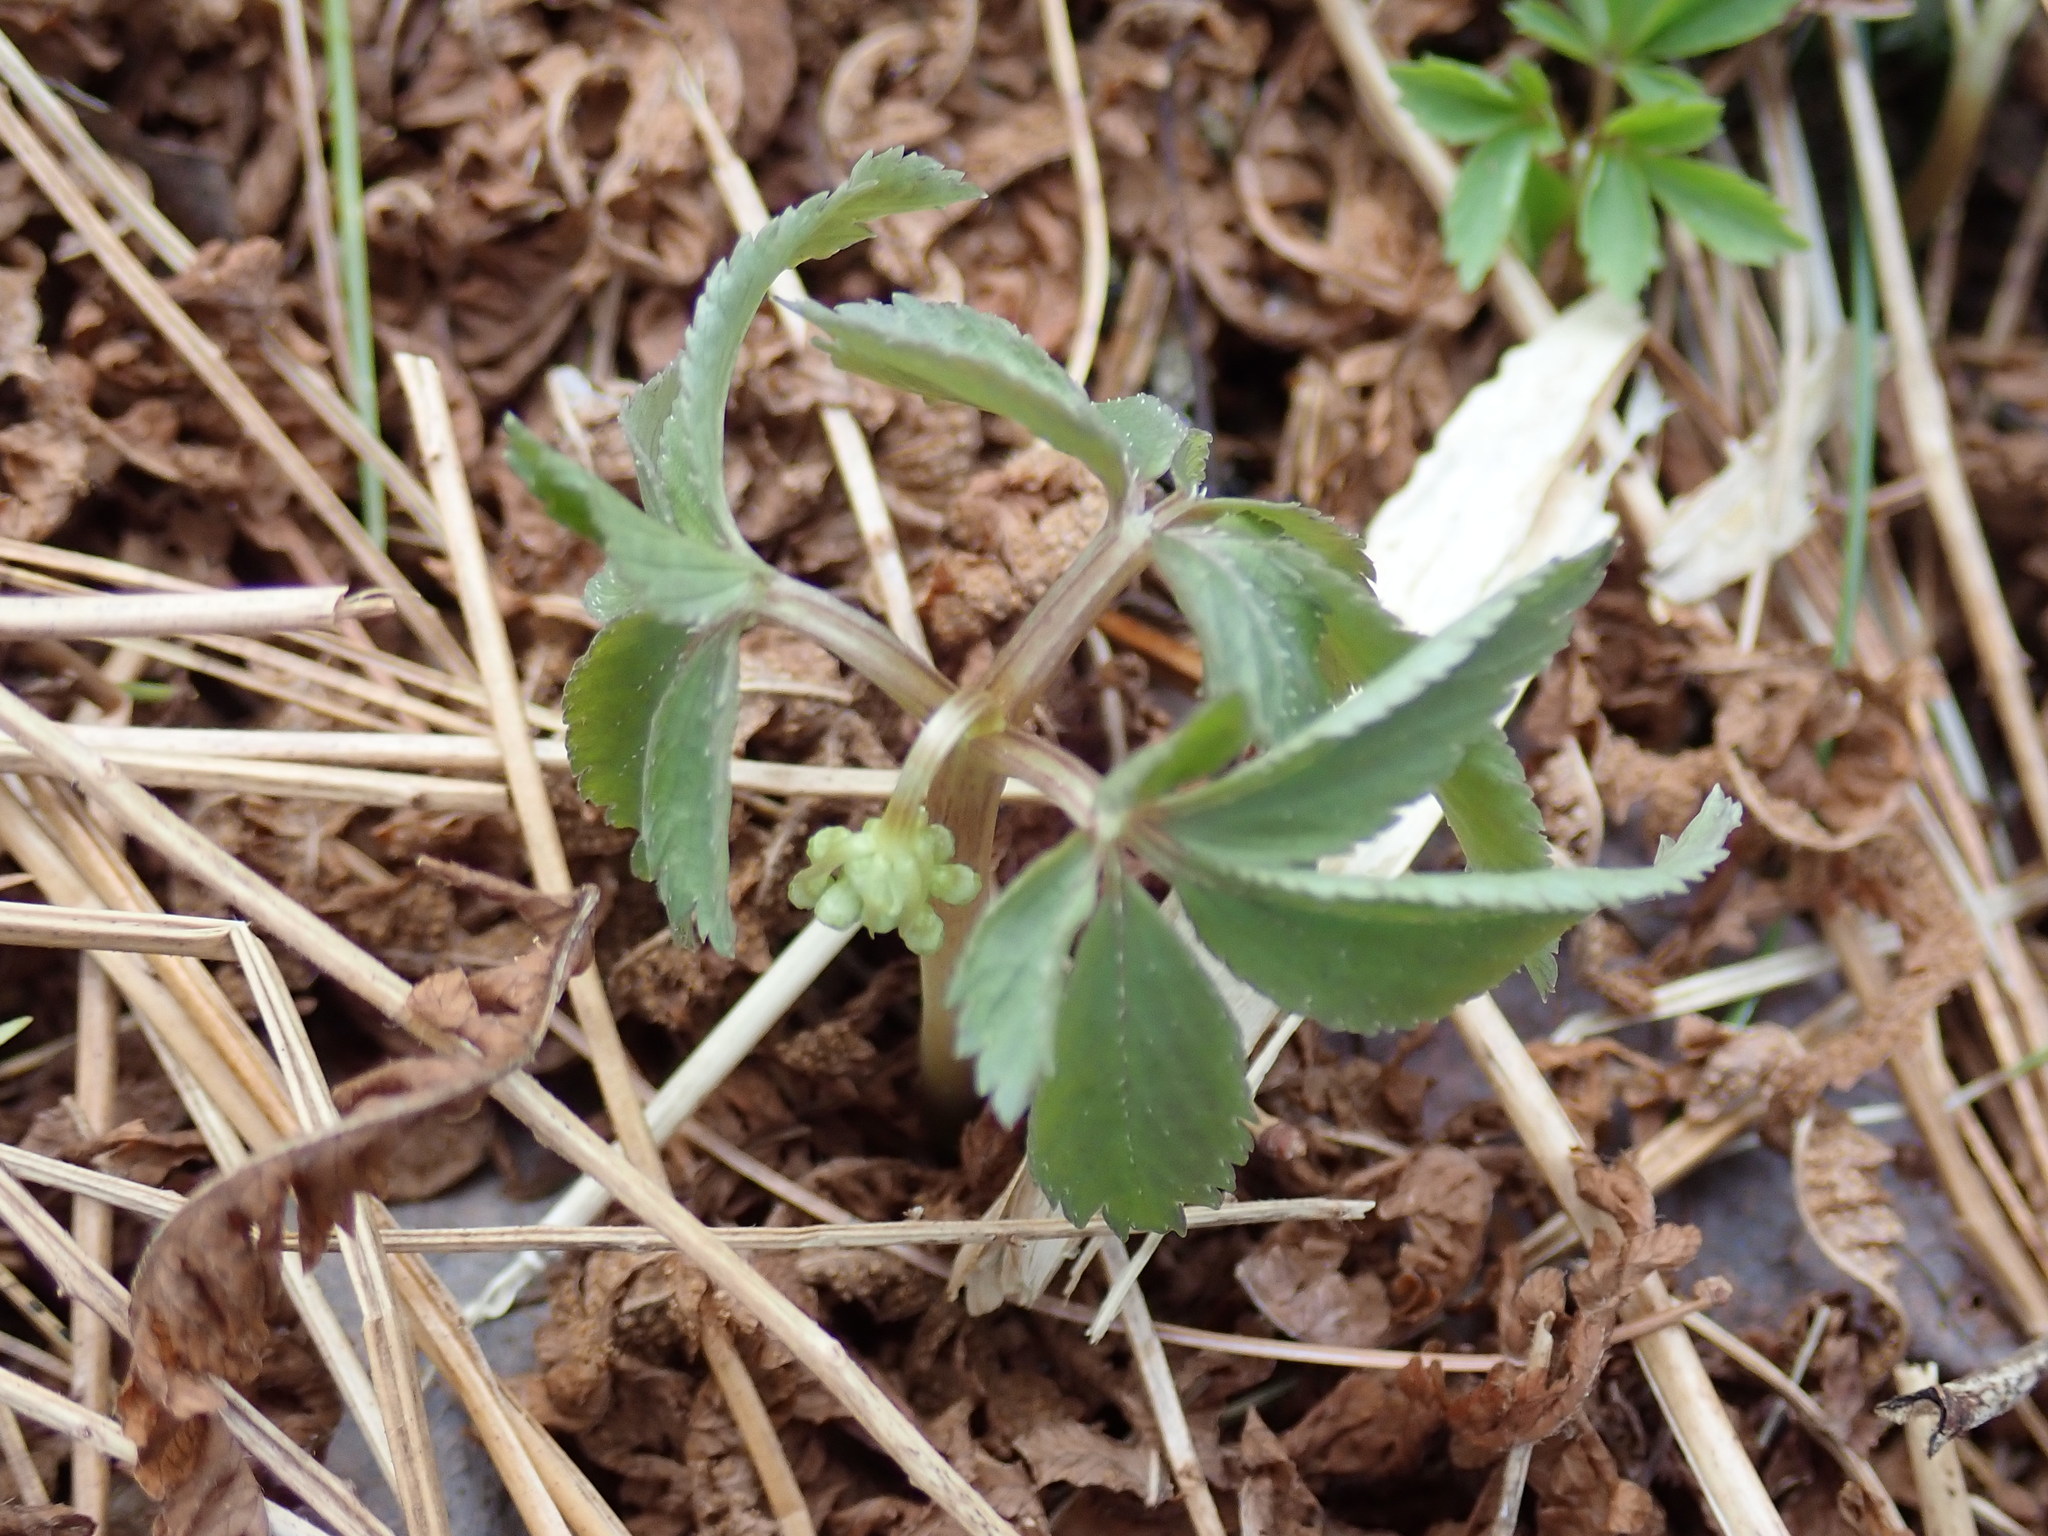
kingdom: Plantae
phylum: Tracheophyta
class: Magnoliopsida
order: Apiales
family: Araliaceae
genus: Panax
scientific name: Panax trifolius
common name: Dwarf ginseng
